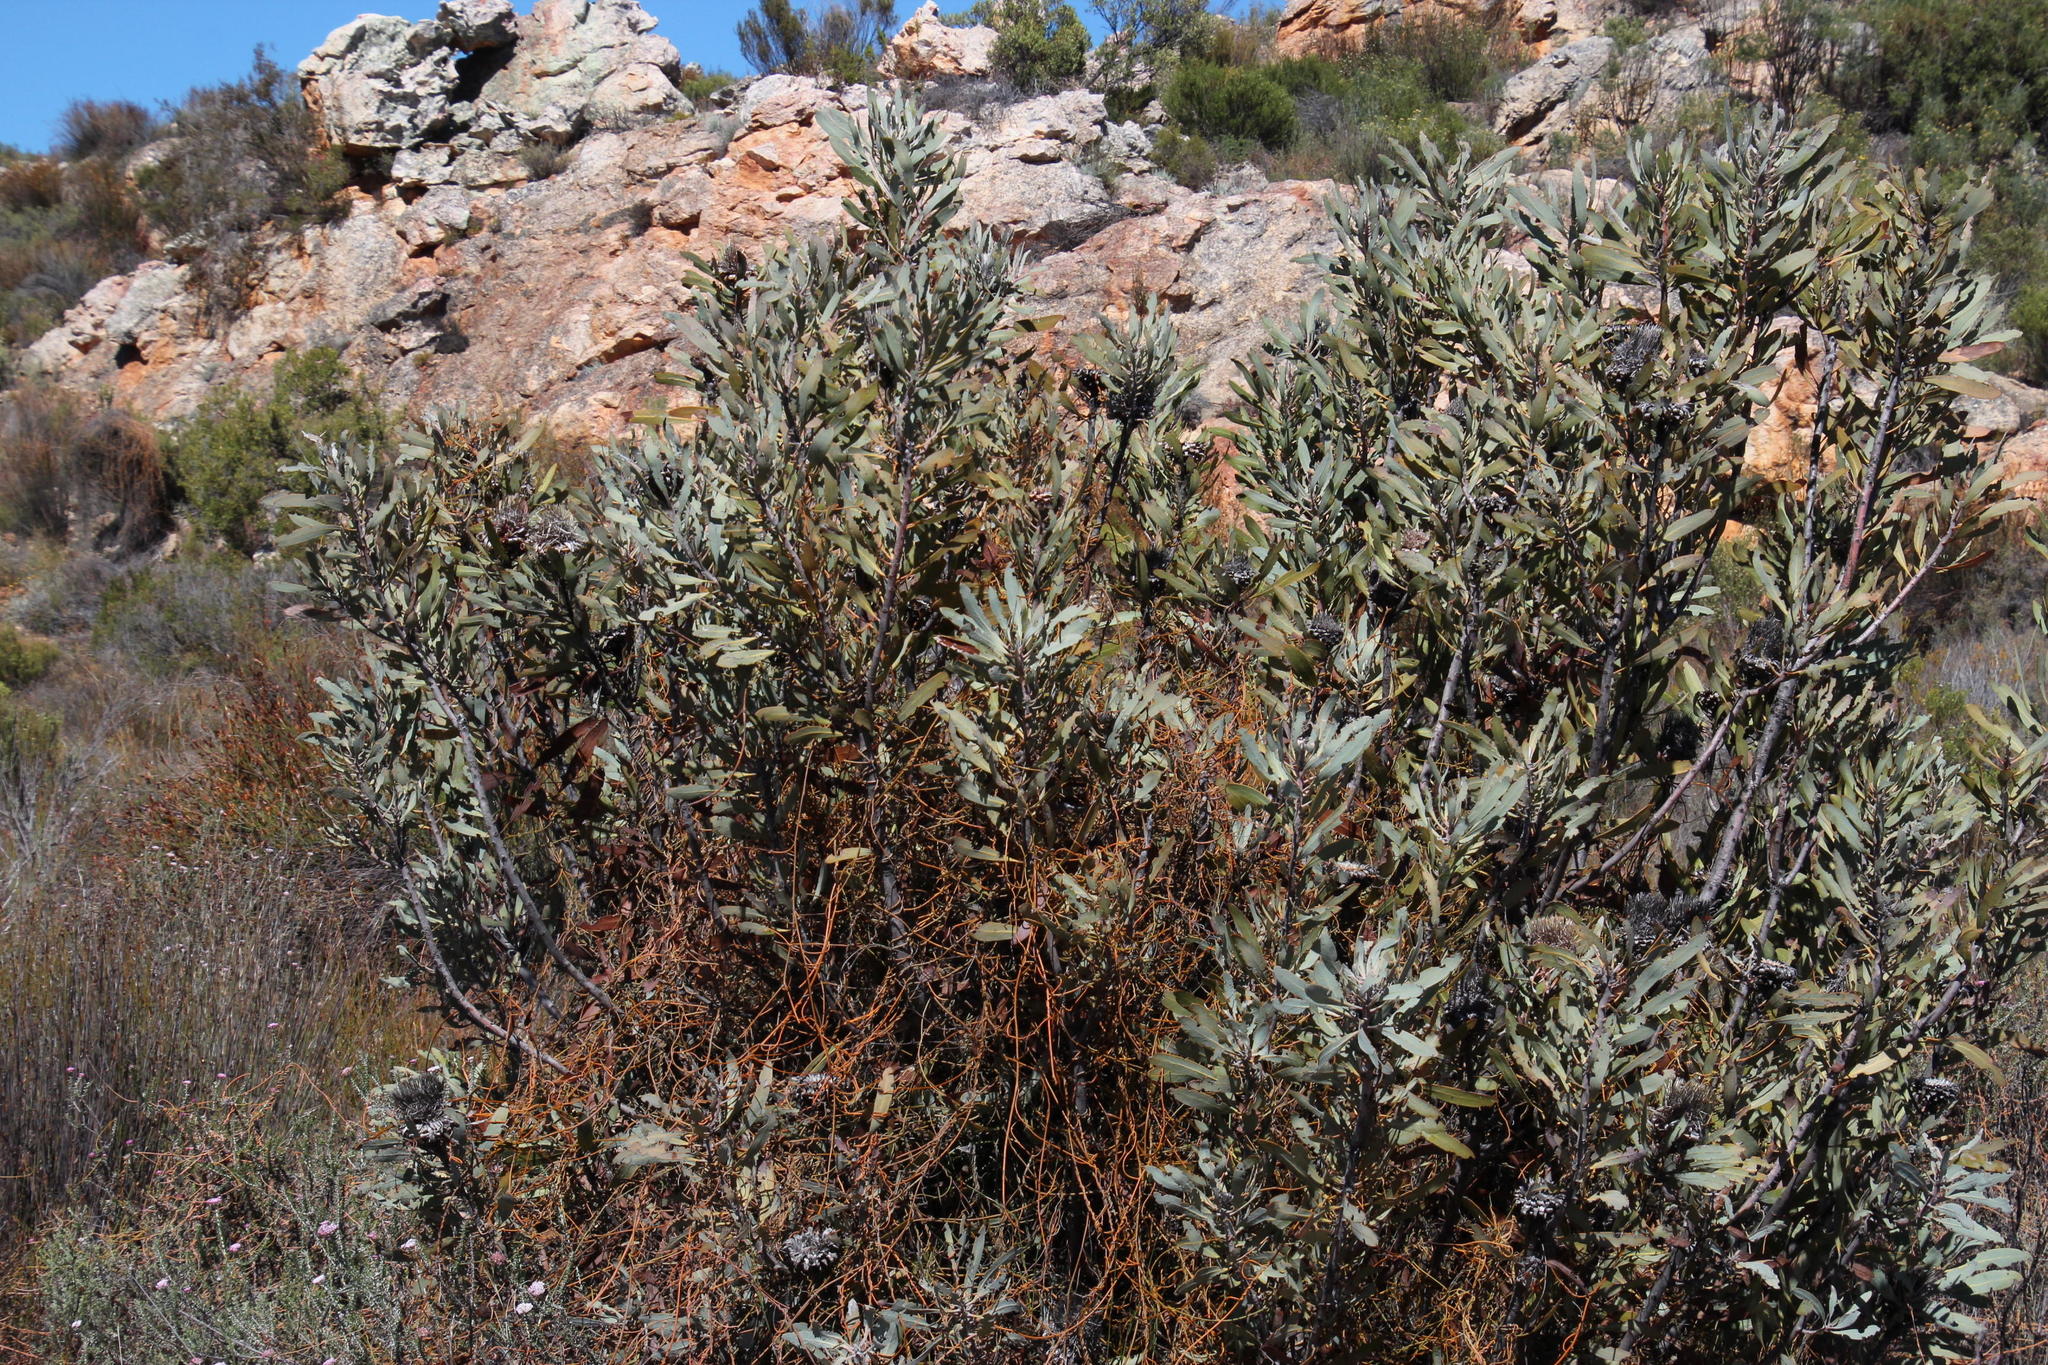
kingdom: Plantae
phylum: Tracheophyta
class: Magnoliopsida
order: Proteales
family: Proteaceae
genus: Protea
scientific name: Protea laurifolia
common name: Grey-leaf sugarbsh
